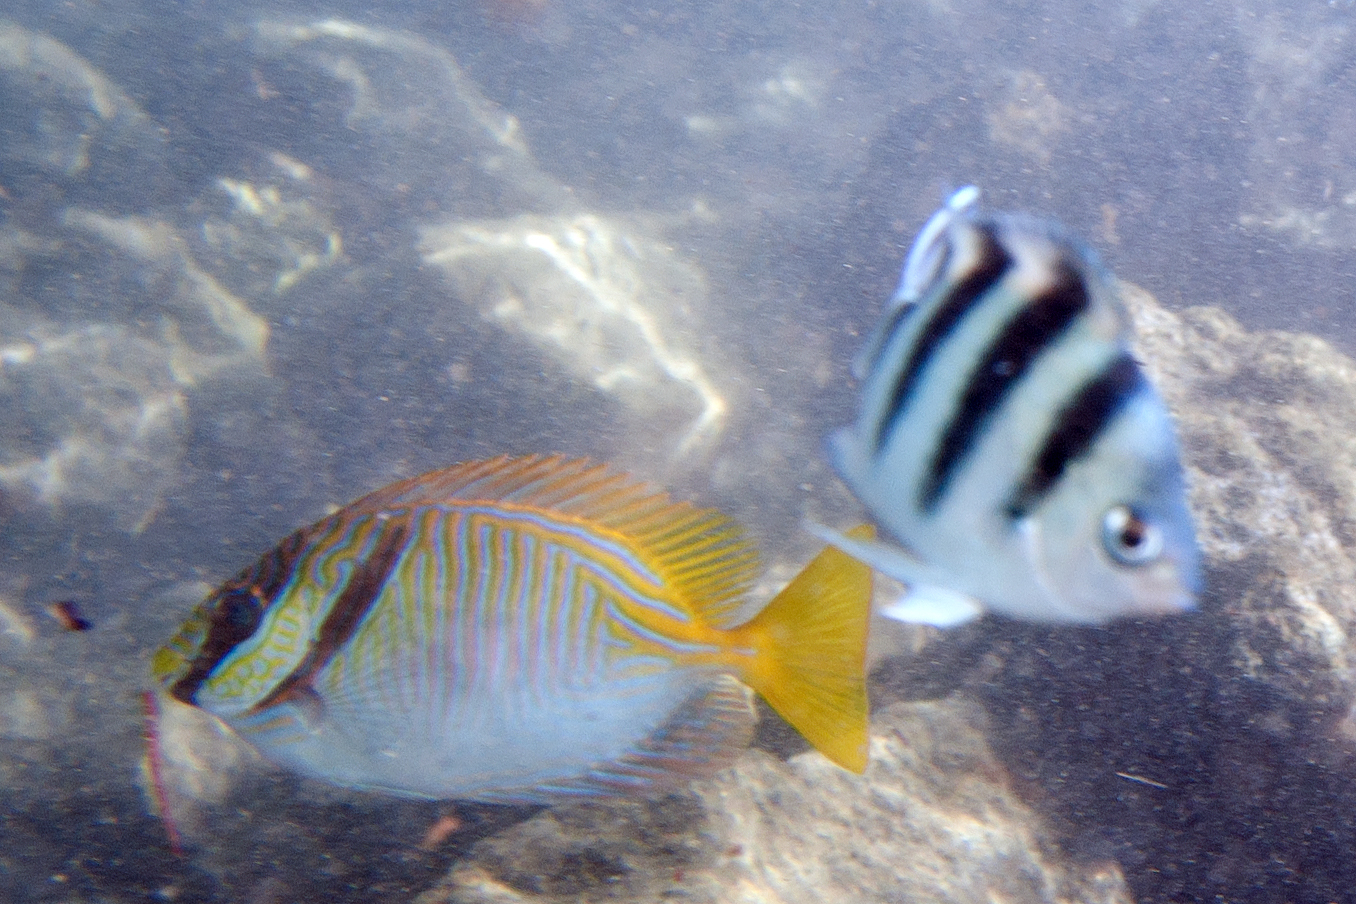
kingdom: Animalia
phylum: Chordata
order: Perciformes
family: Siganidae
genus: Siganus
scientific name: Siganus doliatus
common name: Barred spinefoot
